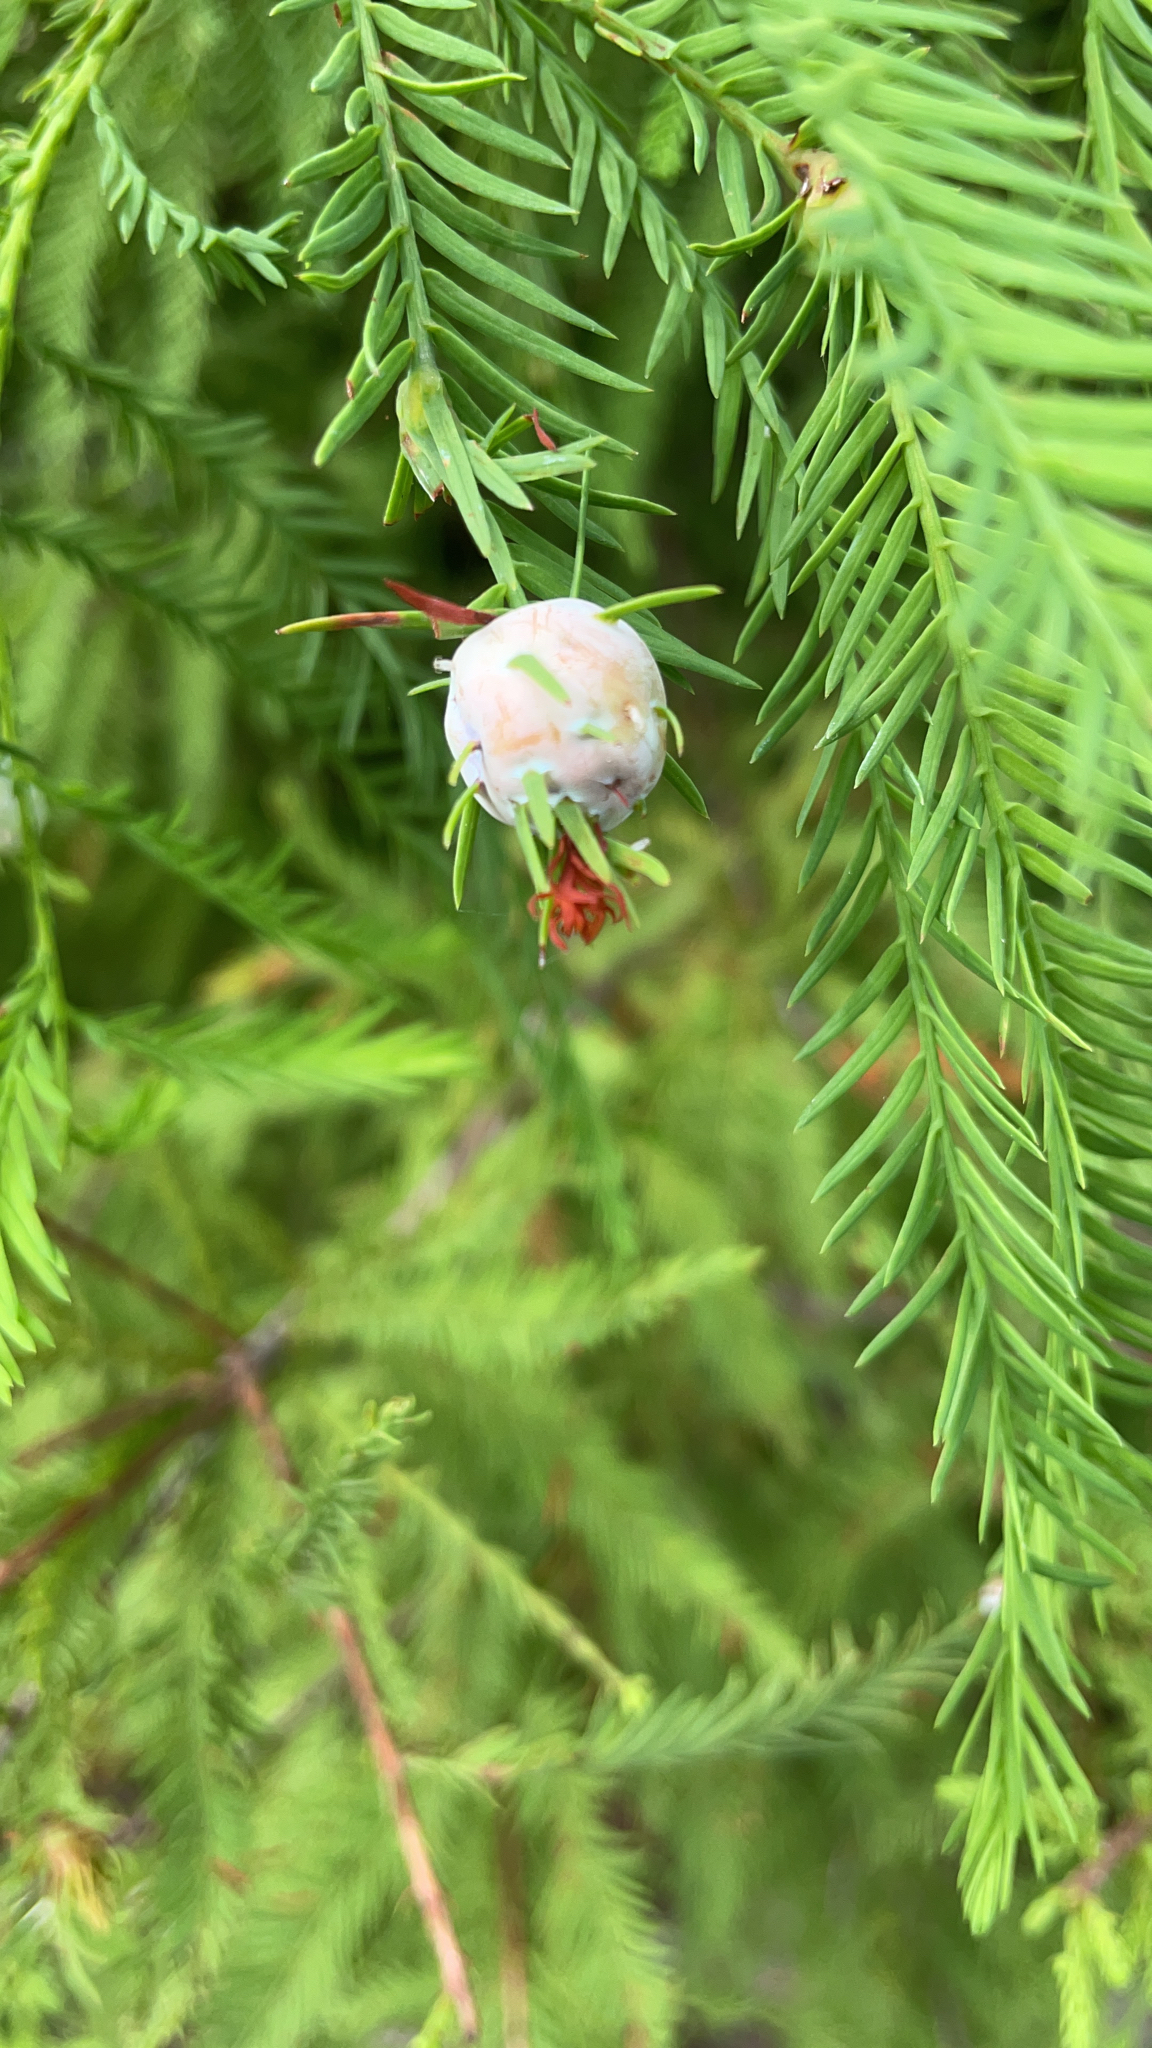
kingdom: Animalia
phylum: Arthropoda
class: Insecta
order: Diptera
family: Cecidomyiidae
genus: Taxodiomyia
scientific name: Taxodiomyia cupressiananassa
